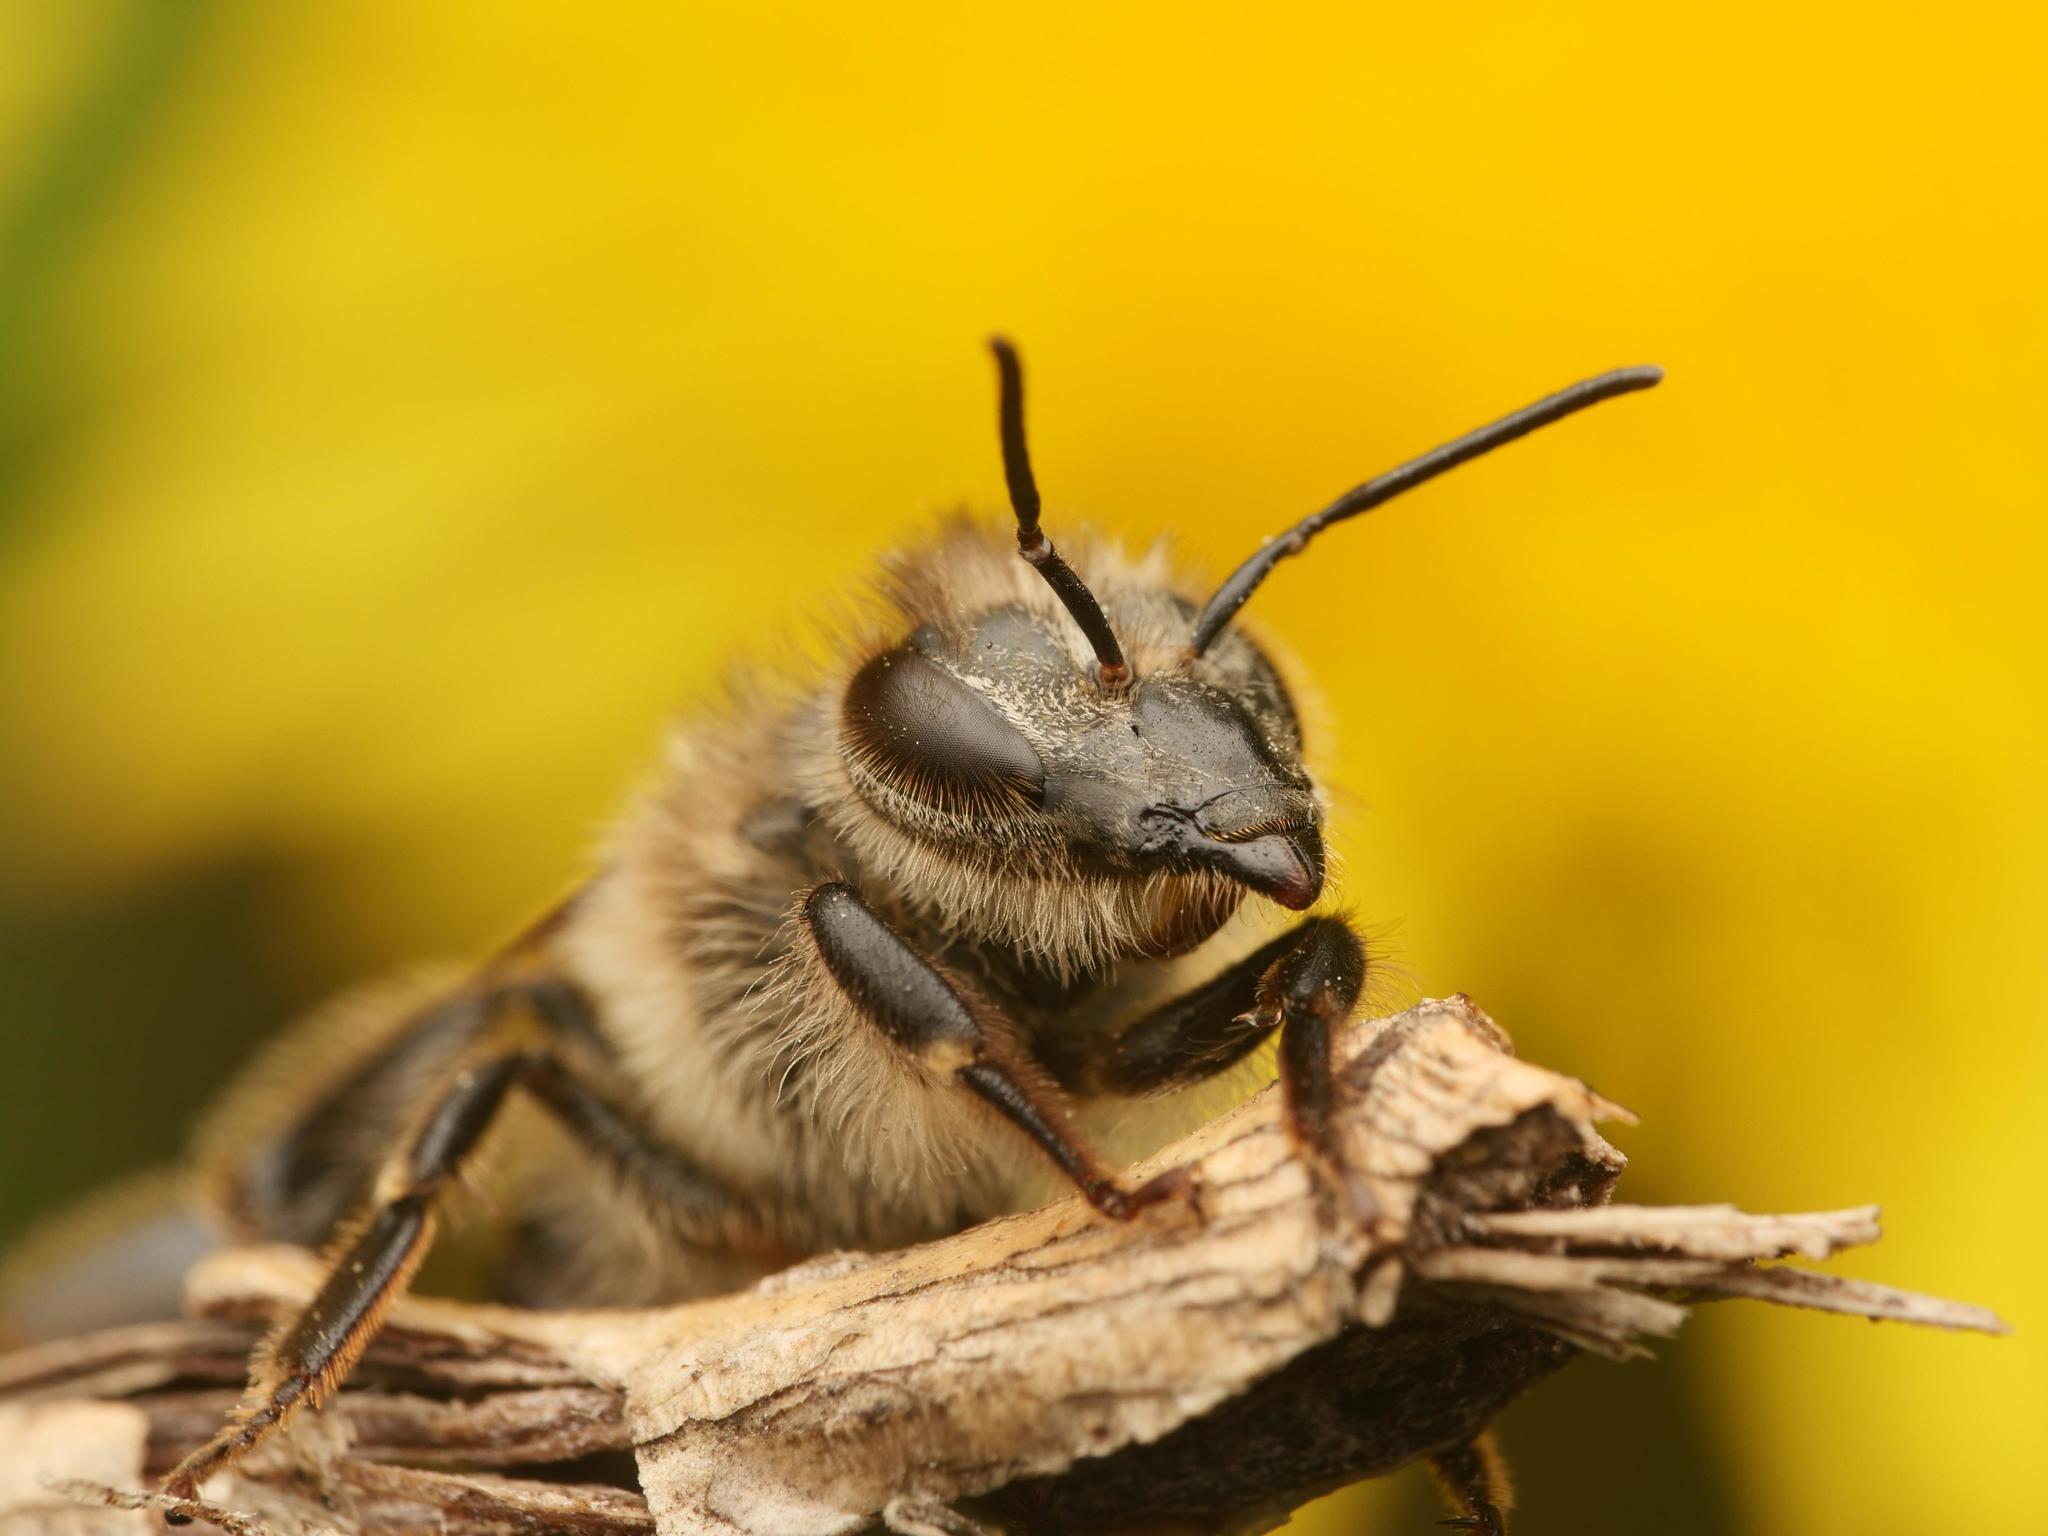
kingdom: Animalia
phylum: Arthropoda
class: Insecta
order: Hymenoptera
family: Apidae
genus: Apis
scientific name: Apis mellifera
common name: Honey bee
